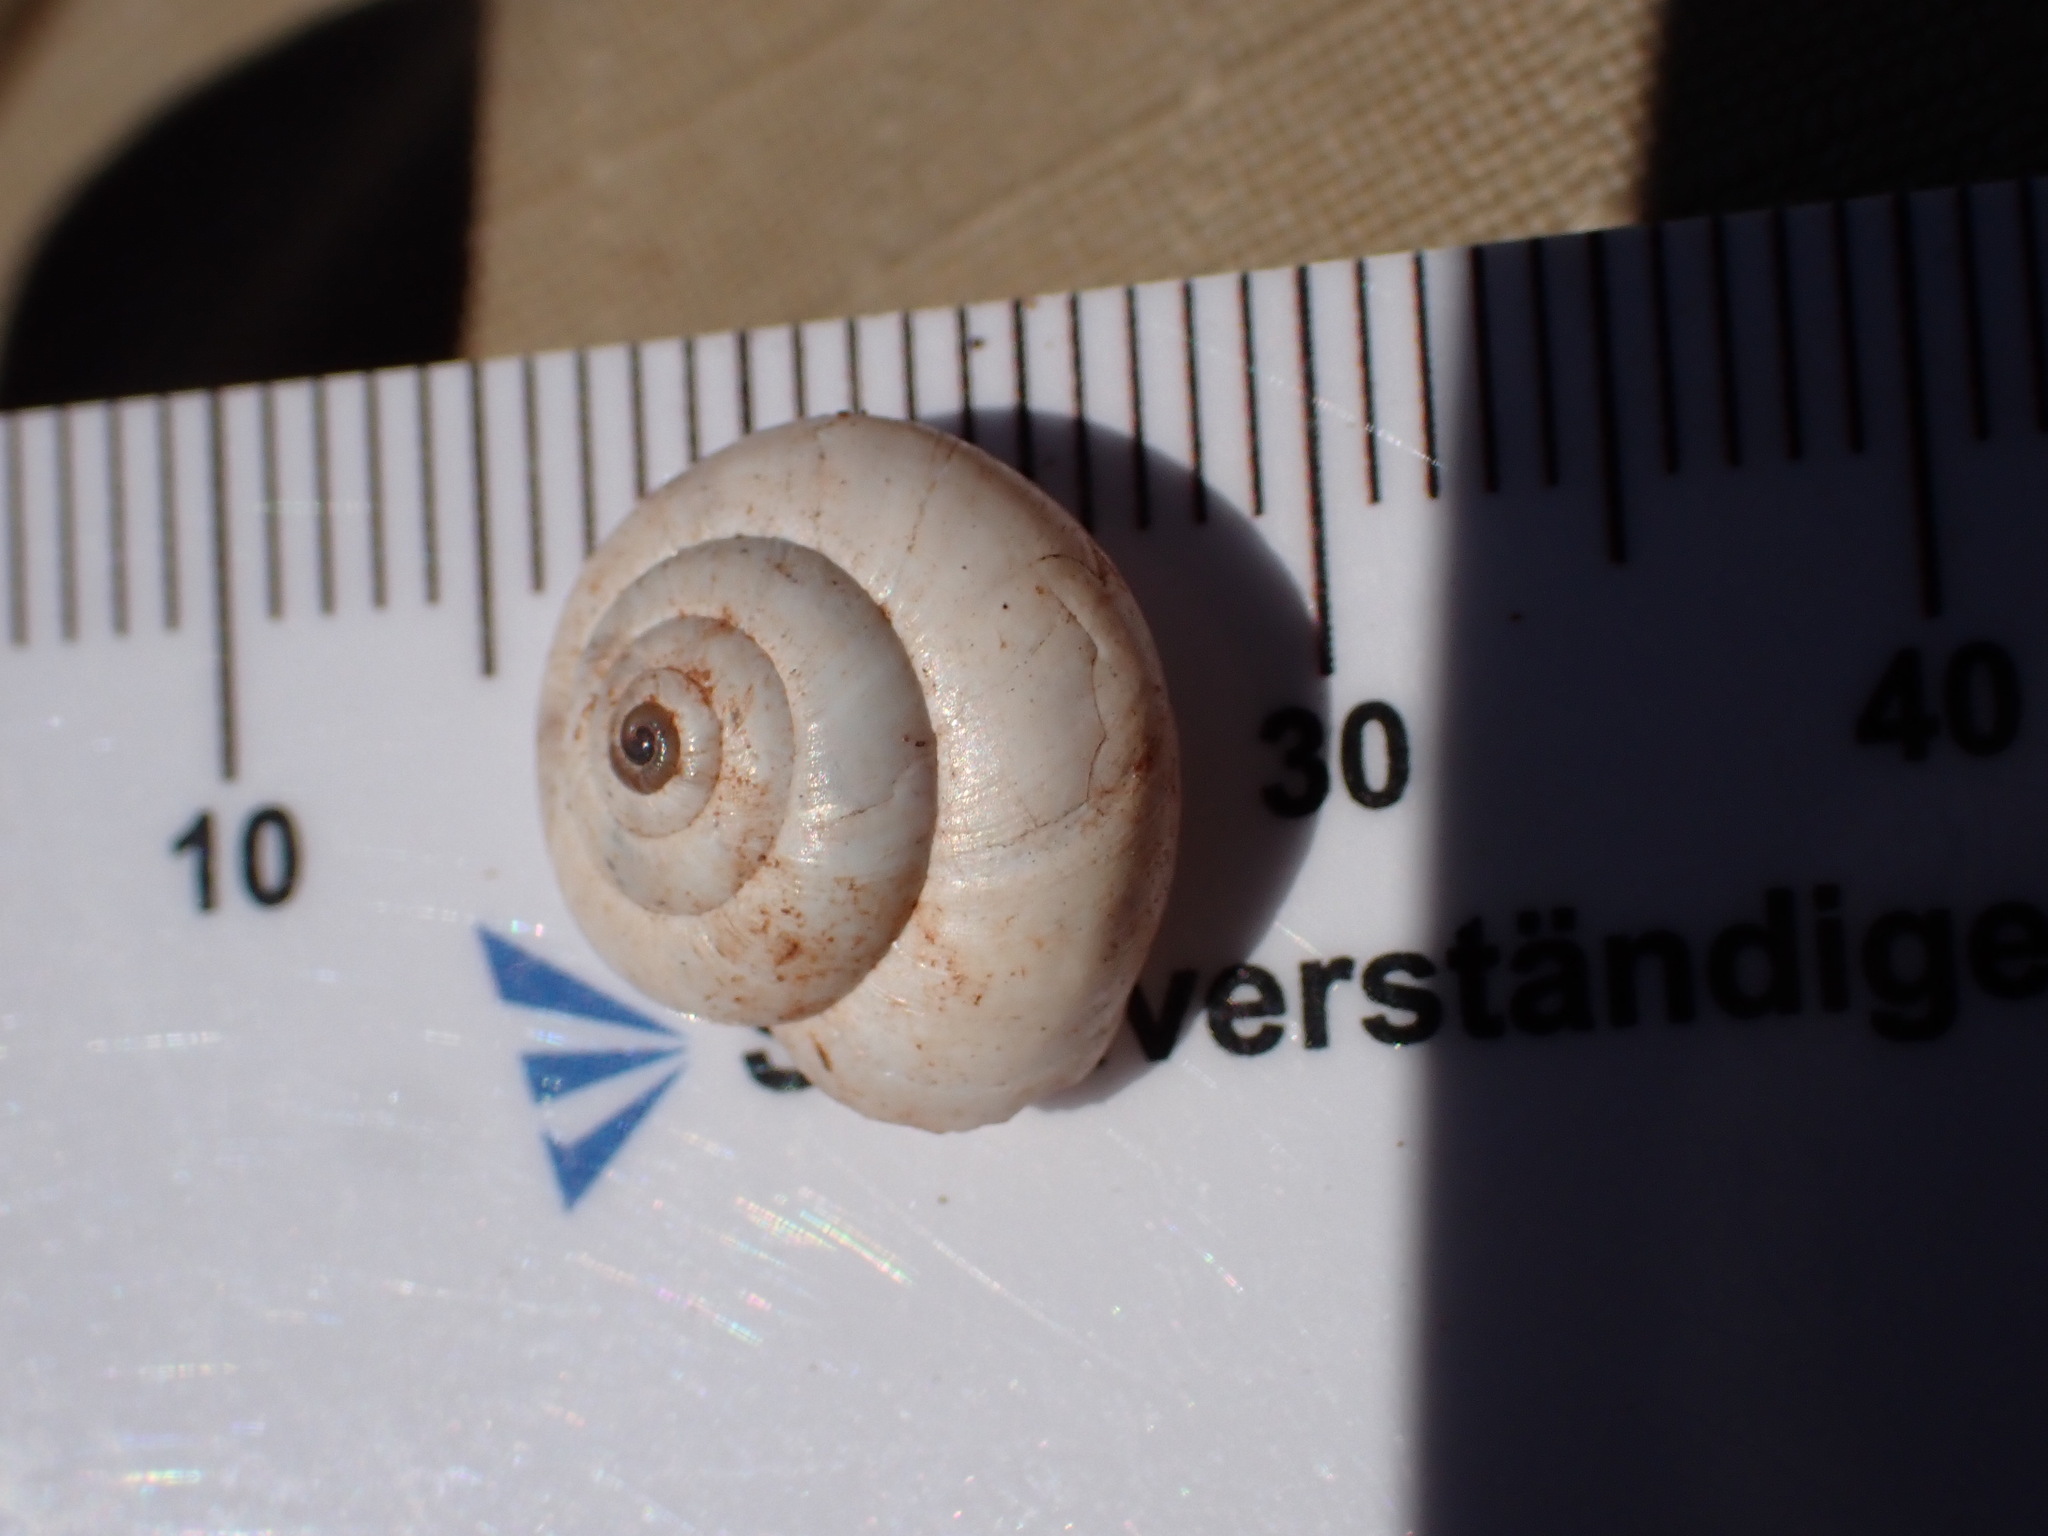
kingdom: Animalia
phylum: Mollusca
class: Gastropoda
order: Stylommatophora
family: Geomitridae
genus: Xeropicta
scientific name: Xeropicta derbentina
